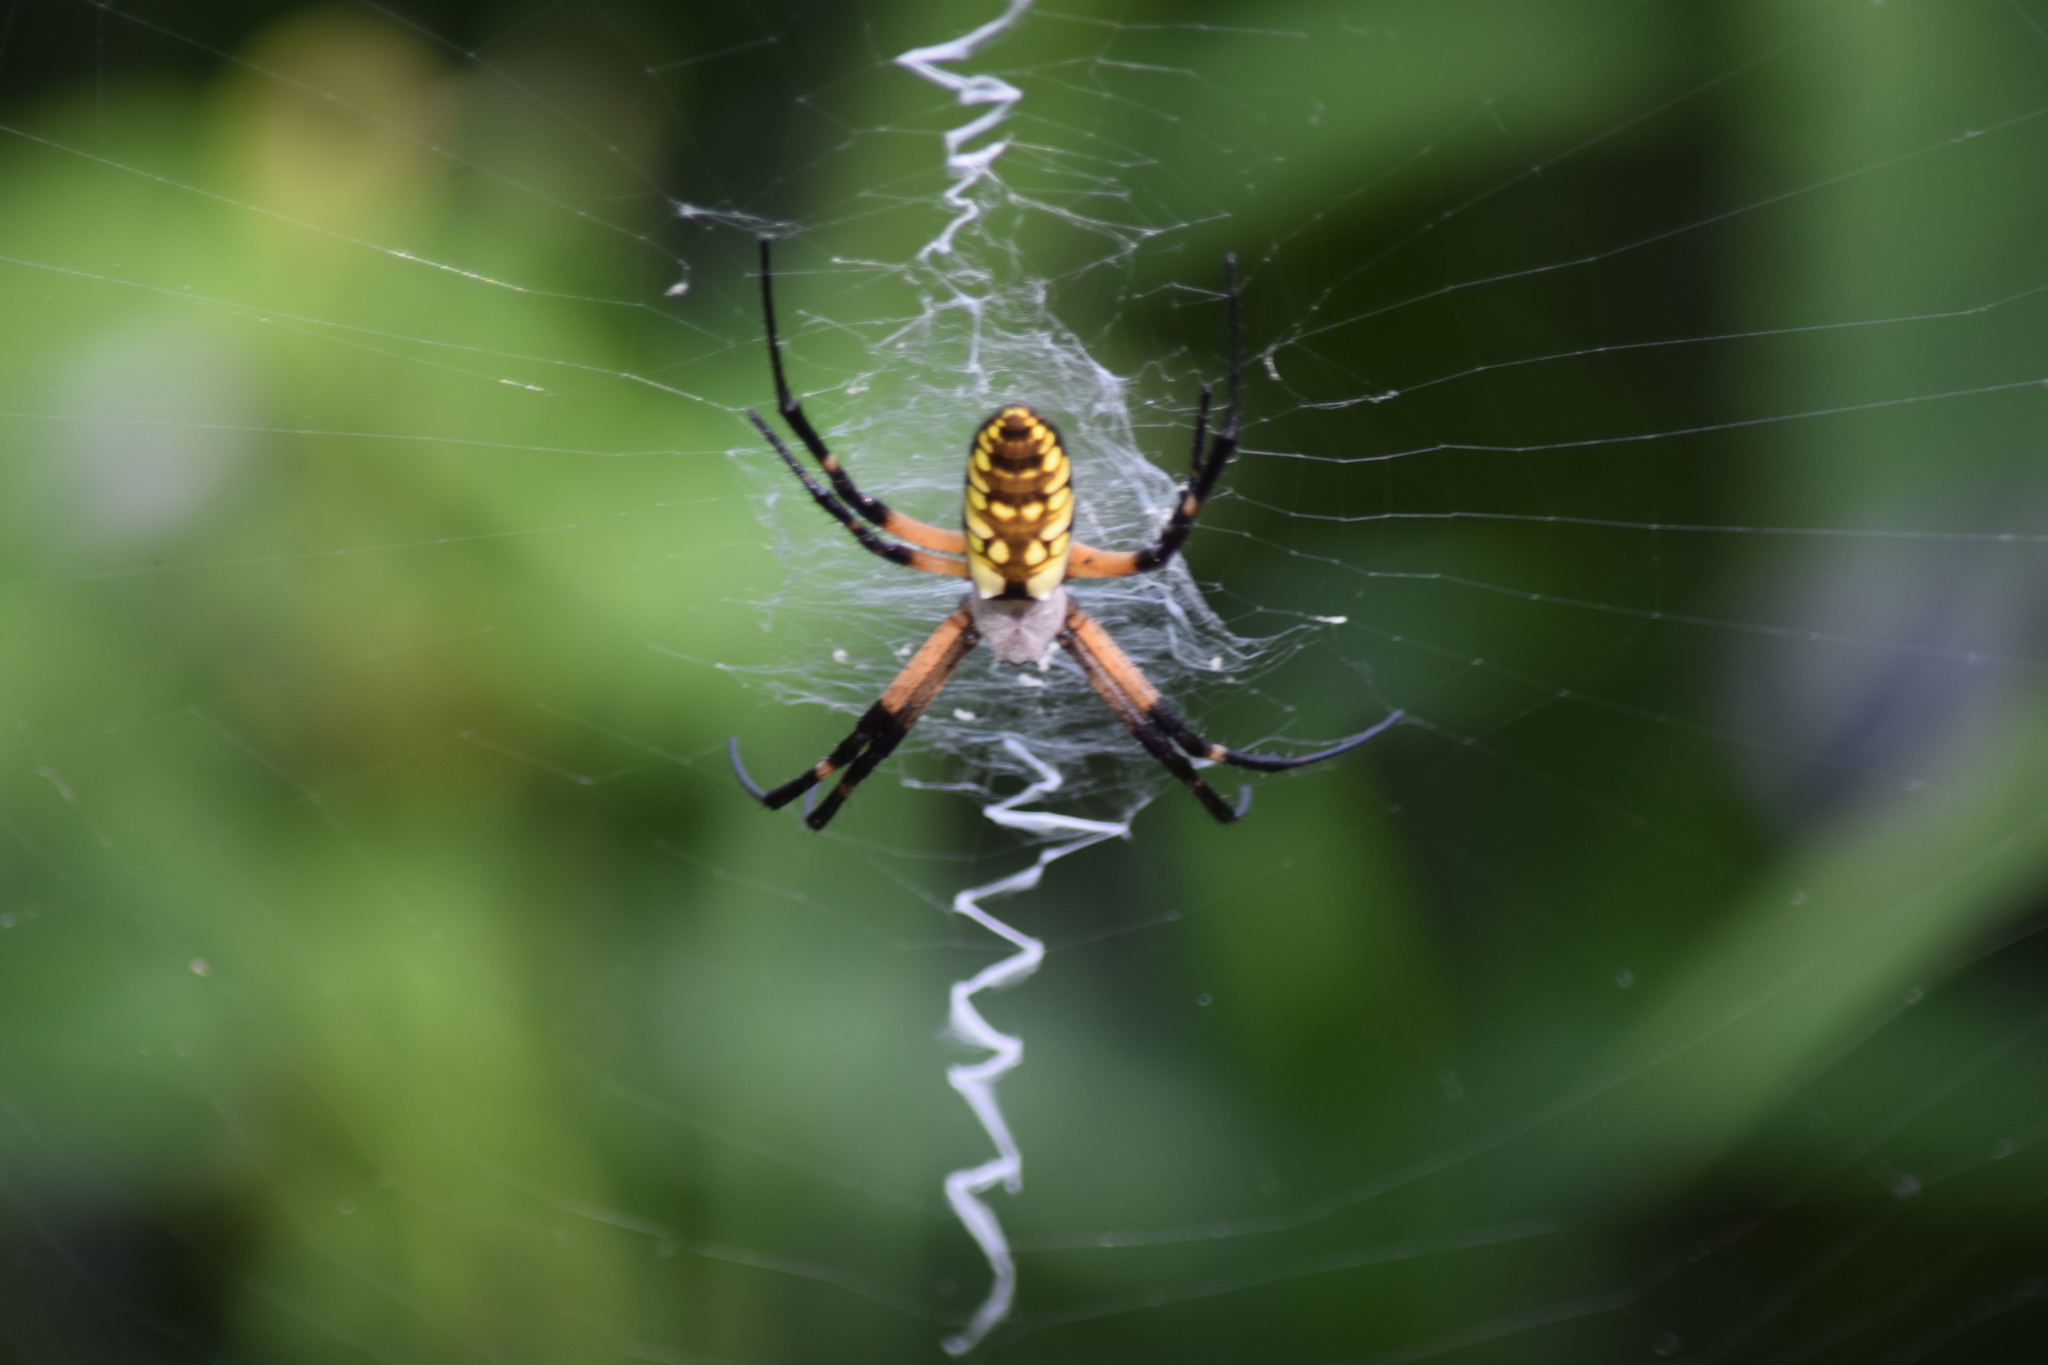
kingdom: Animalia
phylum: Arthropoda
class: Arachnida
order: Araneae
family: Araneidae
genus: Argiope
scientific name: Argiope aurantia
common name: Orb weavers
